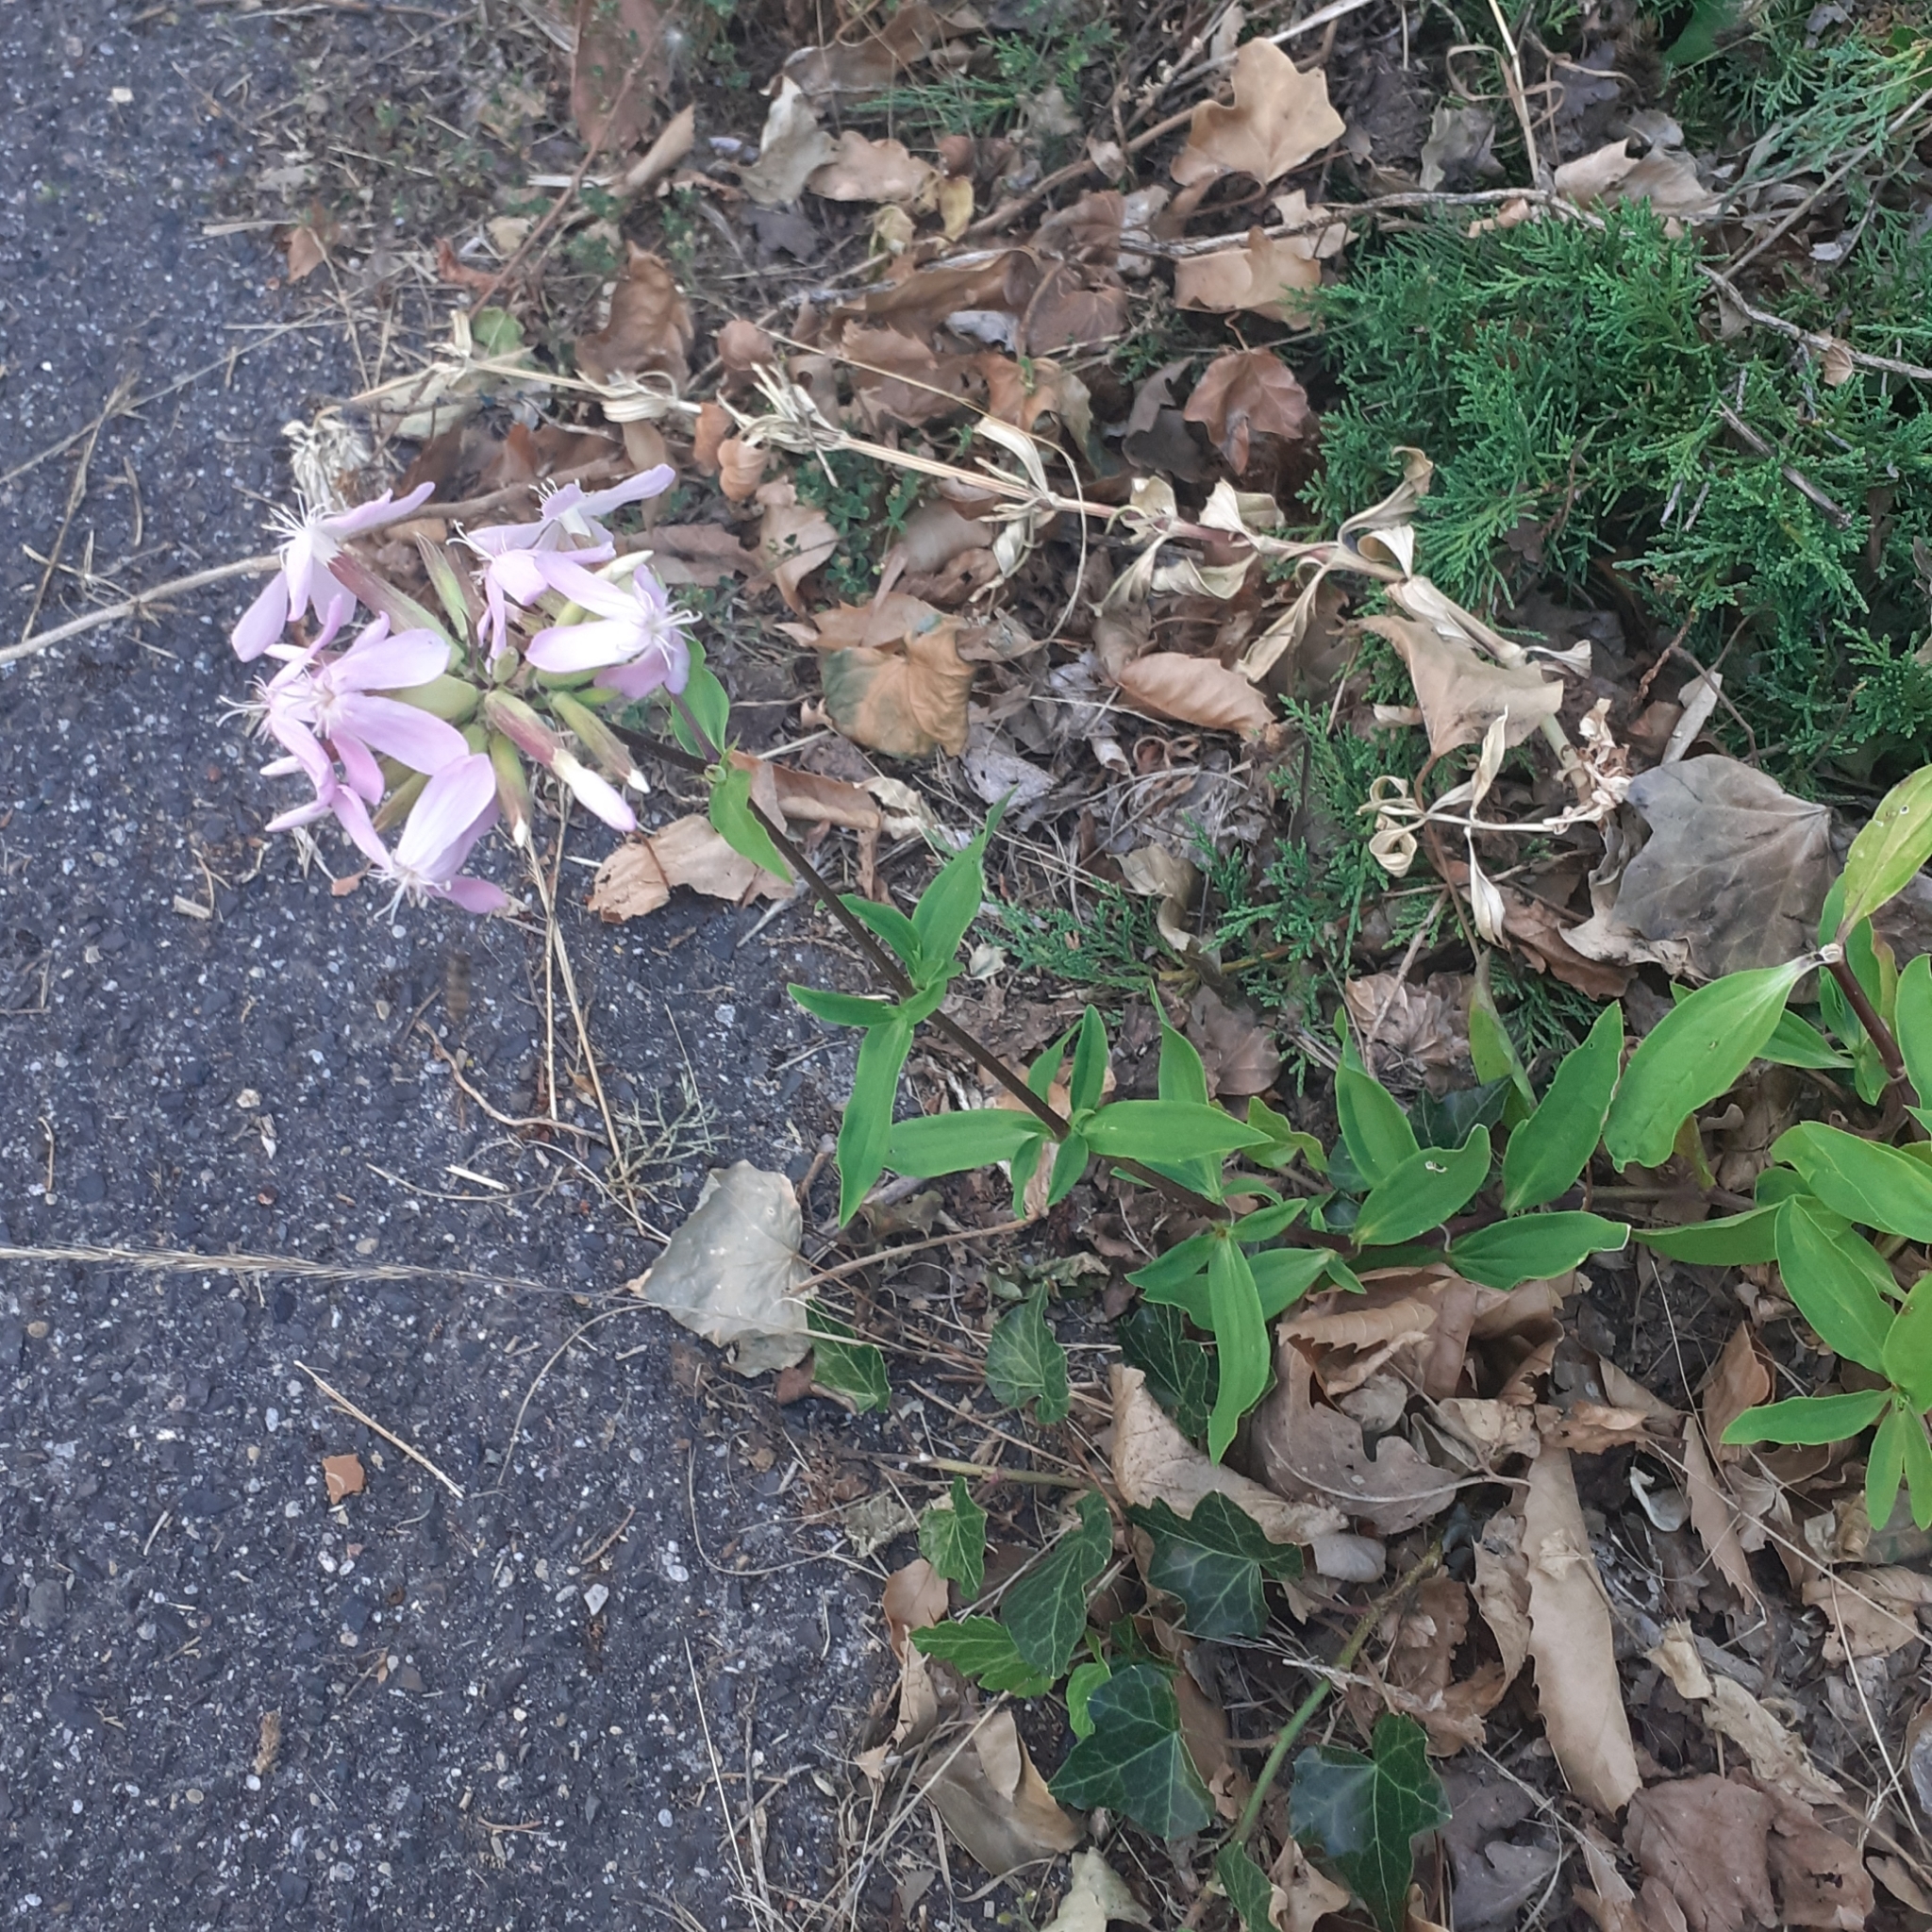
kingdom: Plantae
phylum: Tracheophyta
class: Magnoliopsida
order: Caryophyllales
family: Caryophyllaceae
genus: Saponaria
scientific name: Saponaria officinalis
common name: Soapwort
